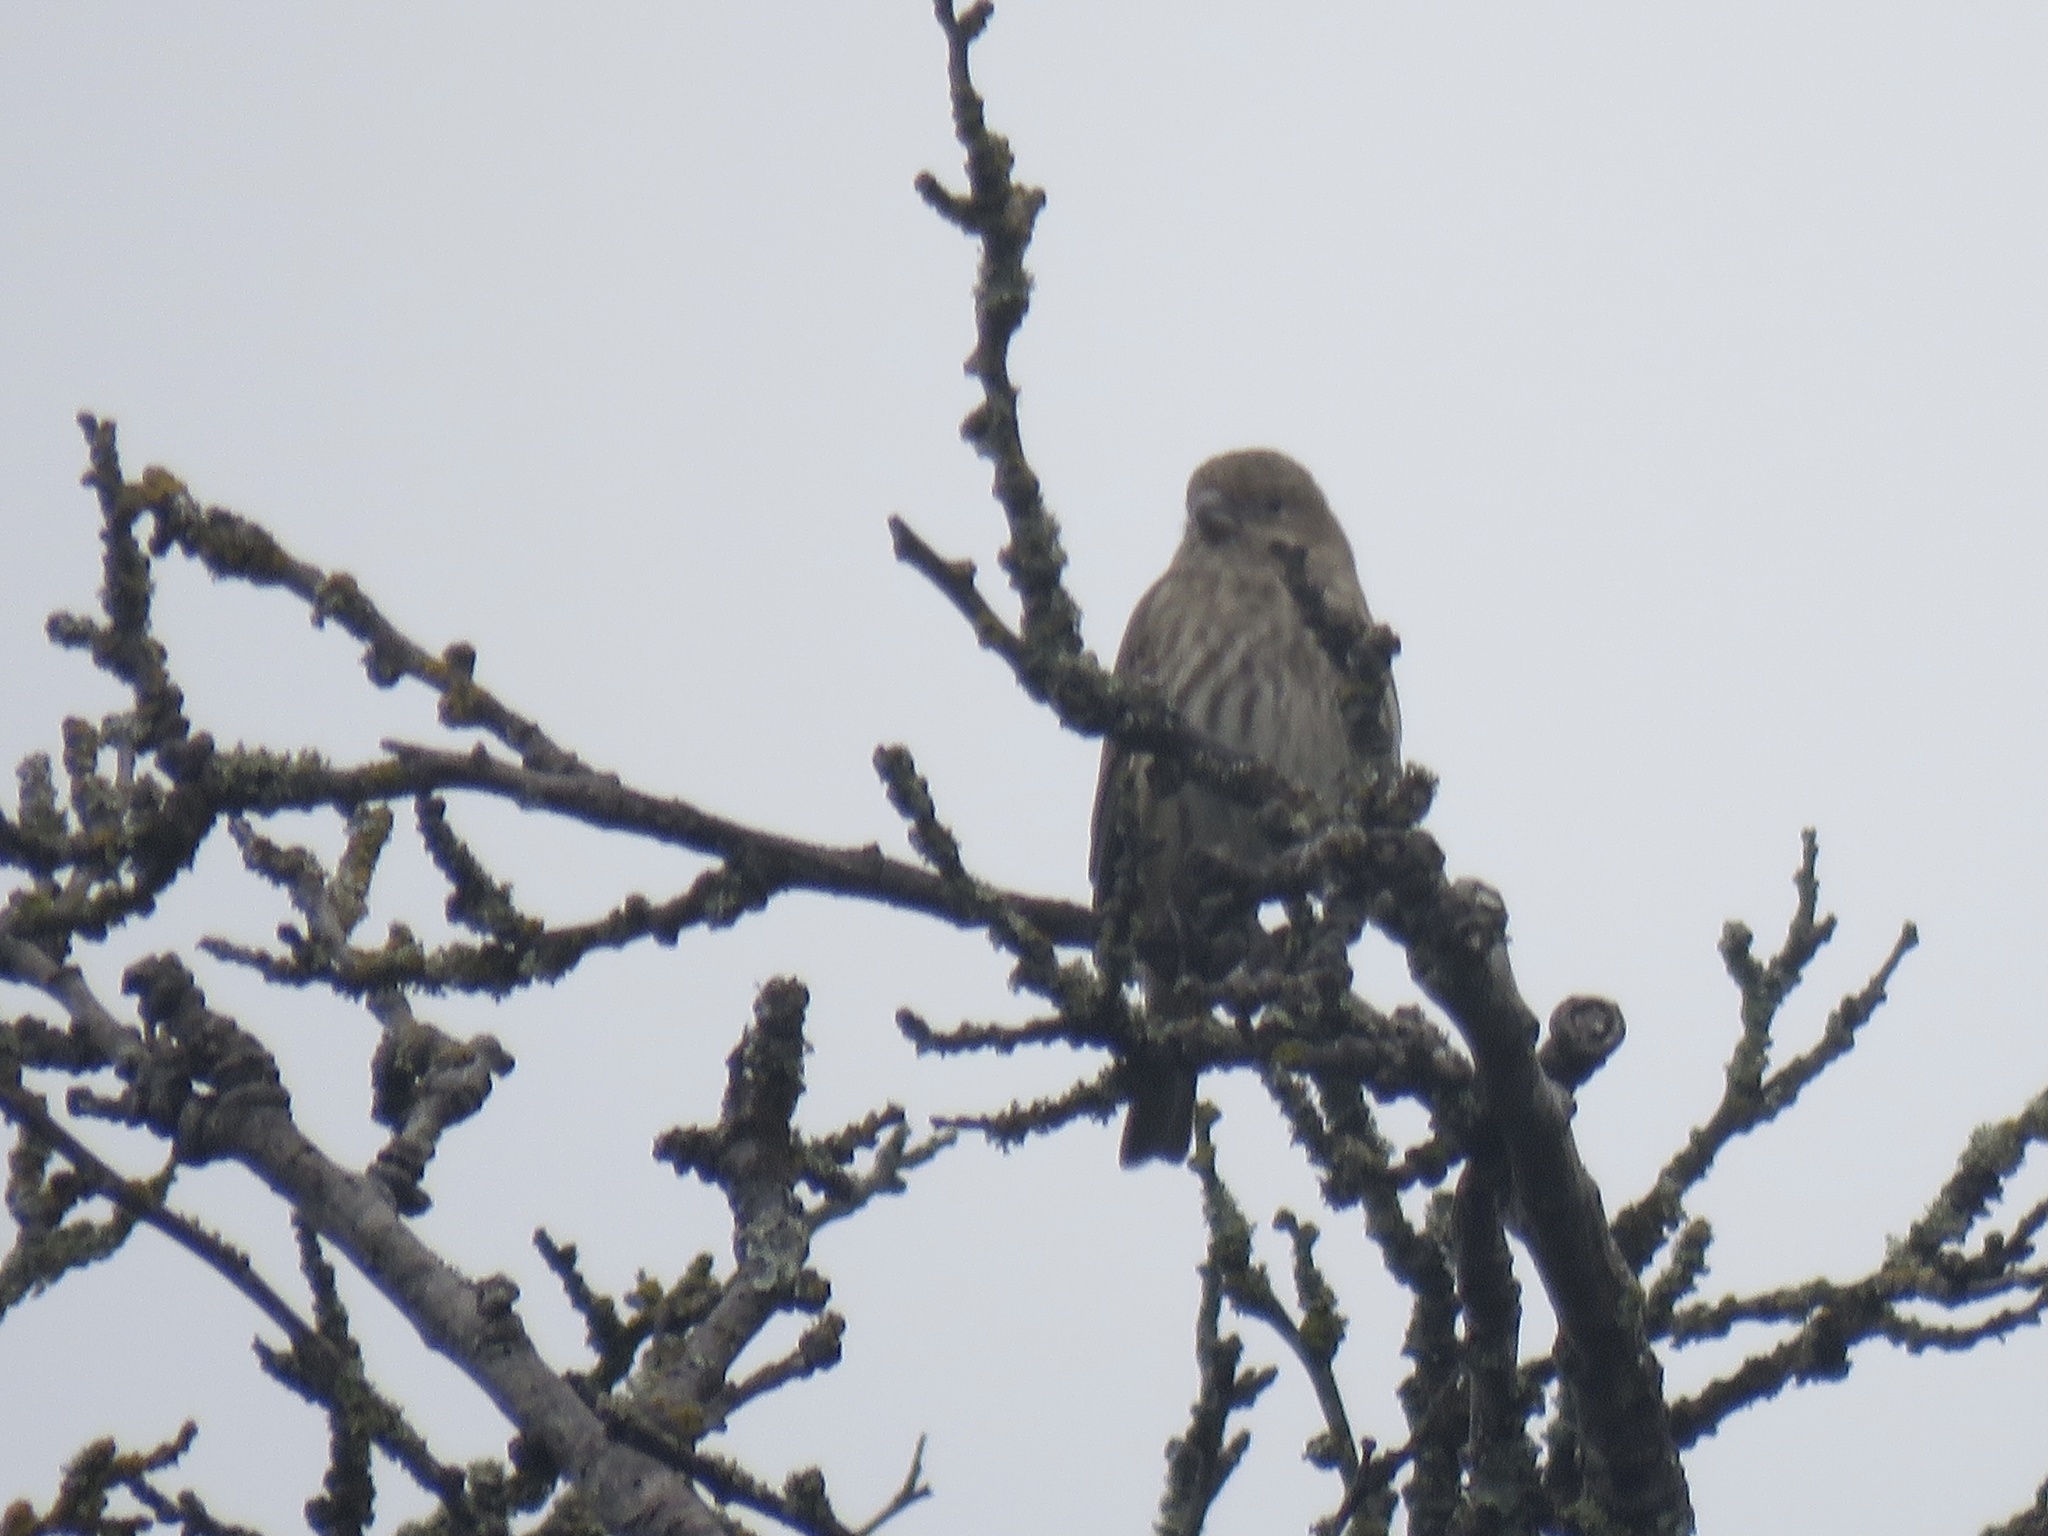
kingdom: Animalia
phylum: Chordata
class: Aves
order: Passeriformes
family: Fringillidae
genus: Haemorhous
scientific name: Haemorhous mexicanus
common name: House finch
